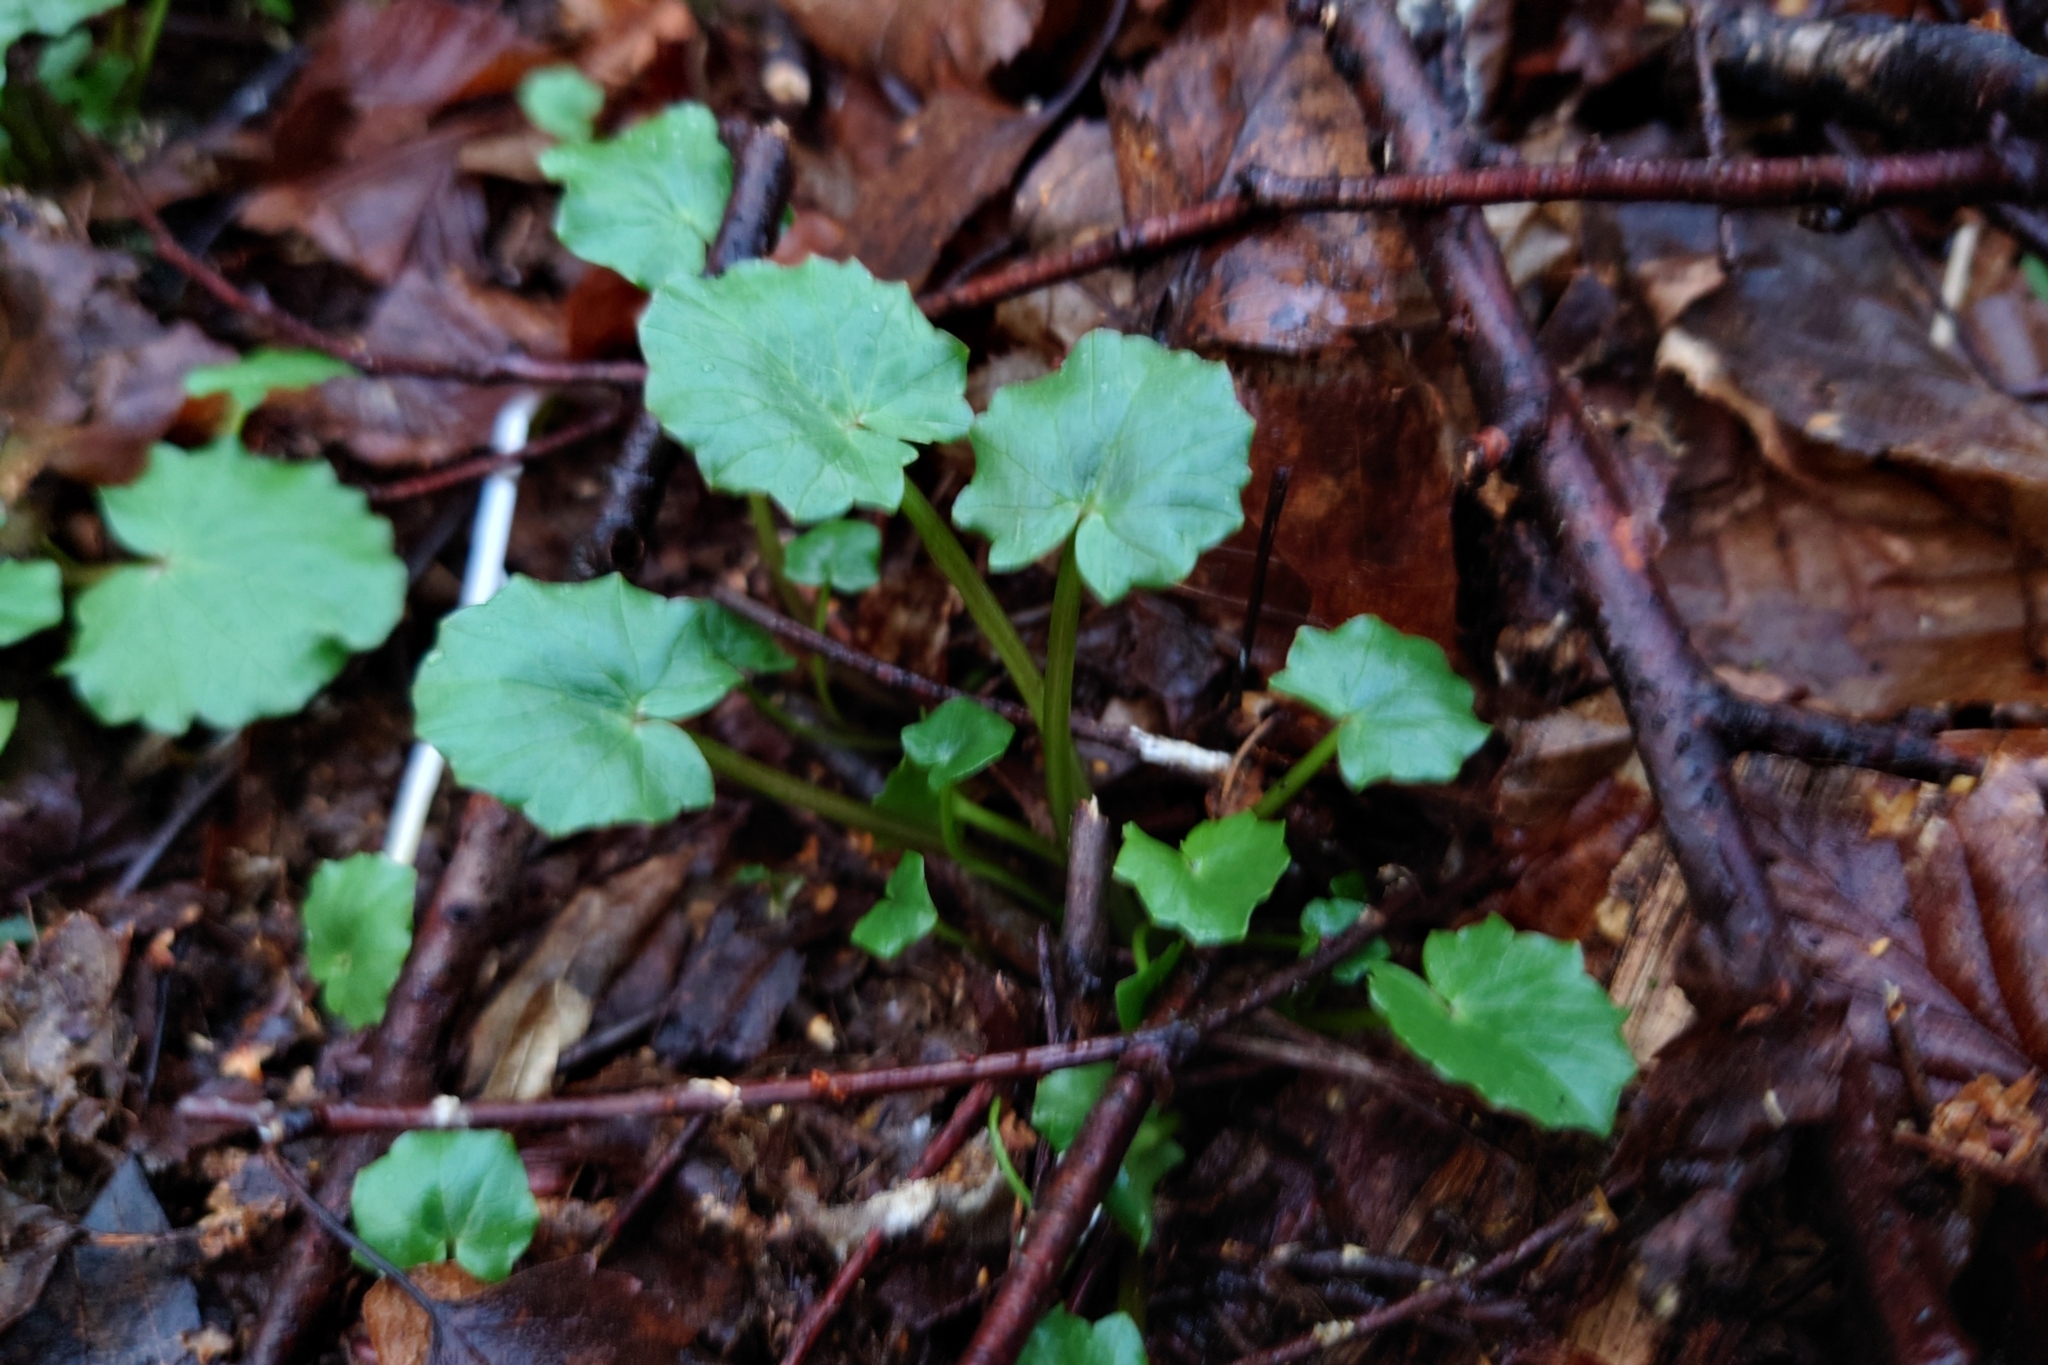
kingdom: Plantae
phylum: Tracheophyta
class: Magnoliopsida
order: Ranunculales
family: Ranunculaceae
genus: Ficaria
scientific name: Ficaria verna
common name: Lesser celandine
